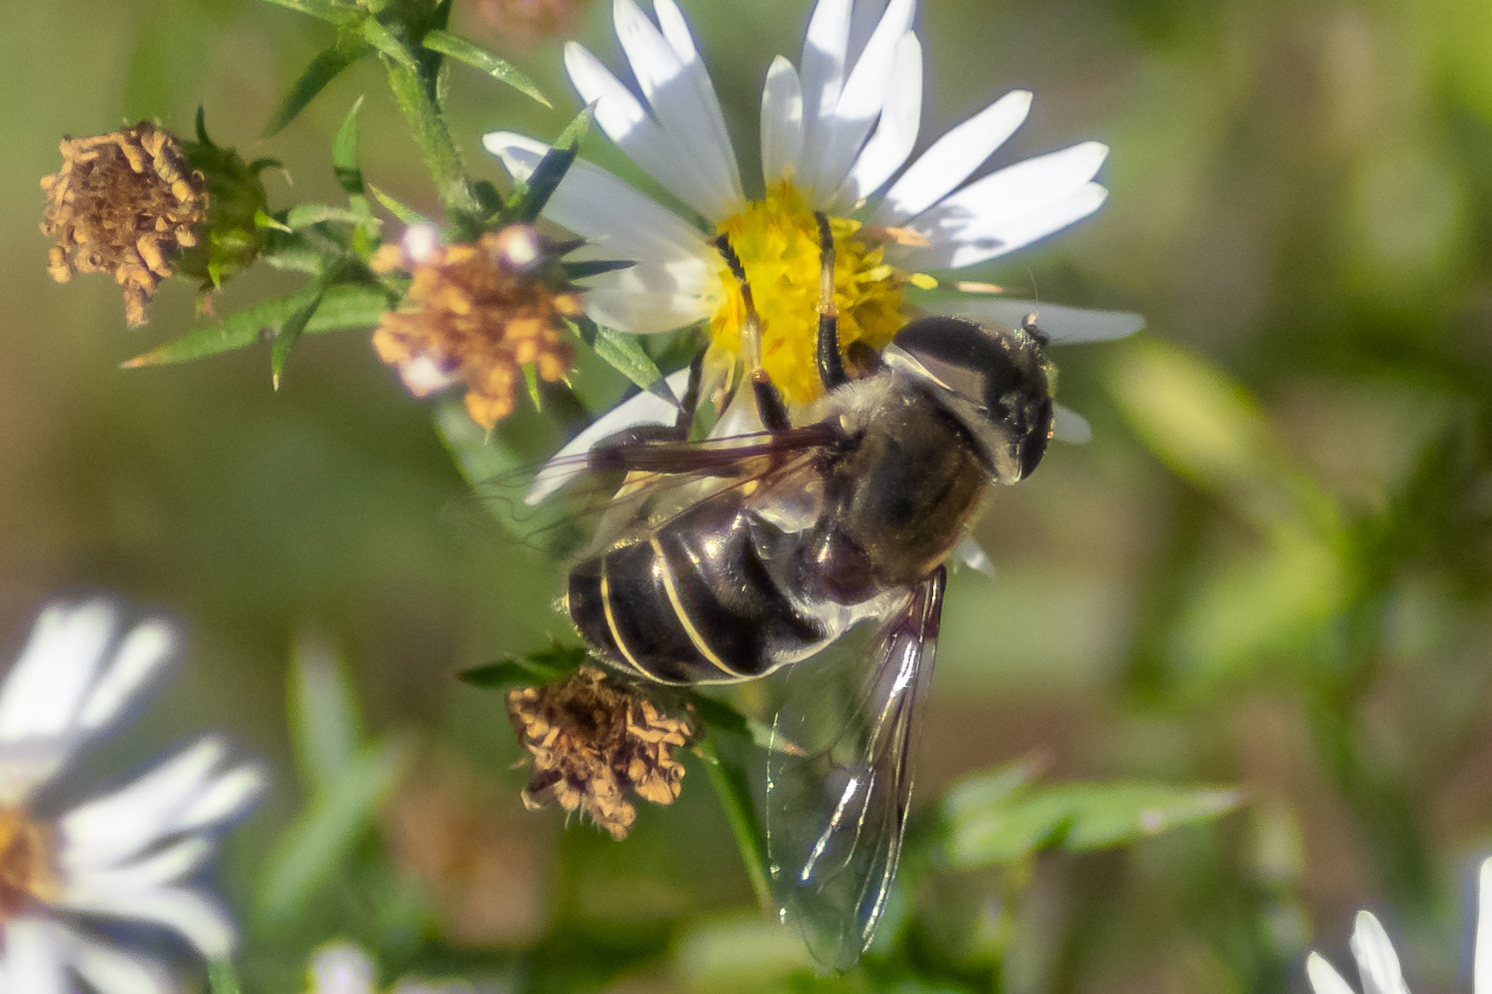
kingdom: Animalia
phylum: Arthropoda
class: Insecta
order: Diptera
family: Syrphidae
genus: Eristalis
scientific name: Eristalis dimidiata
